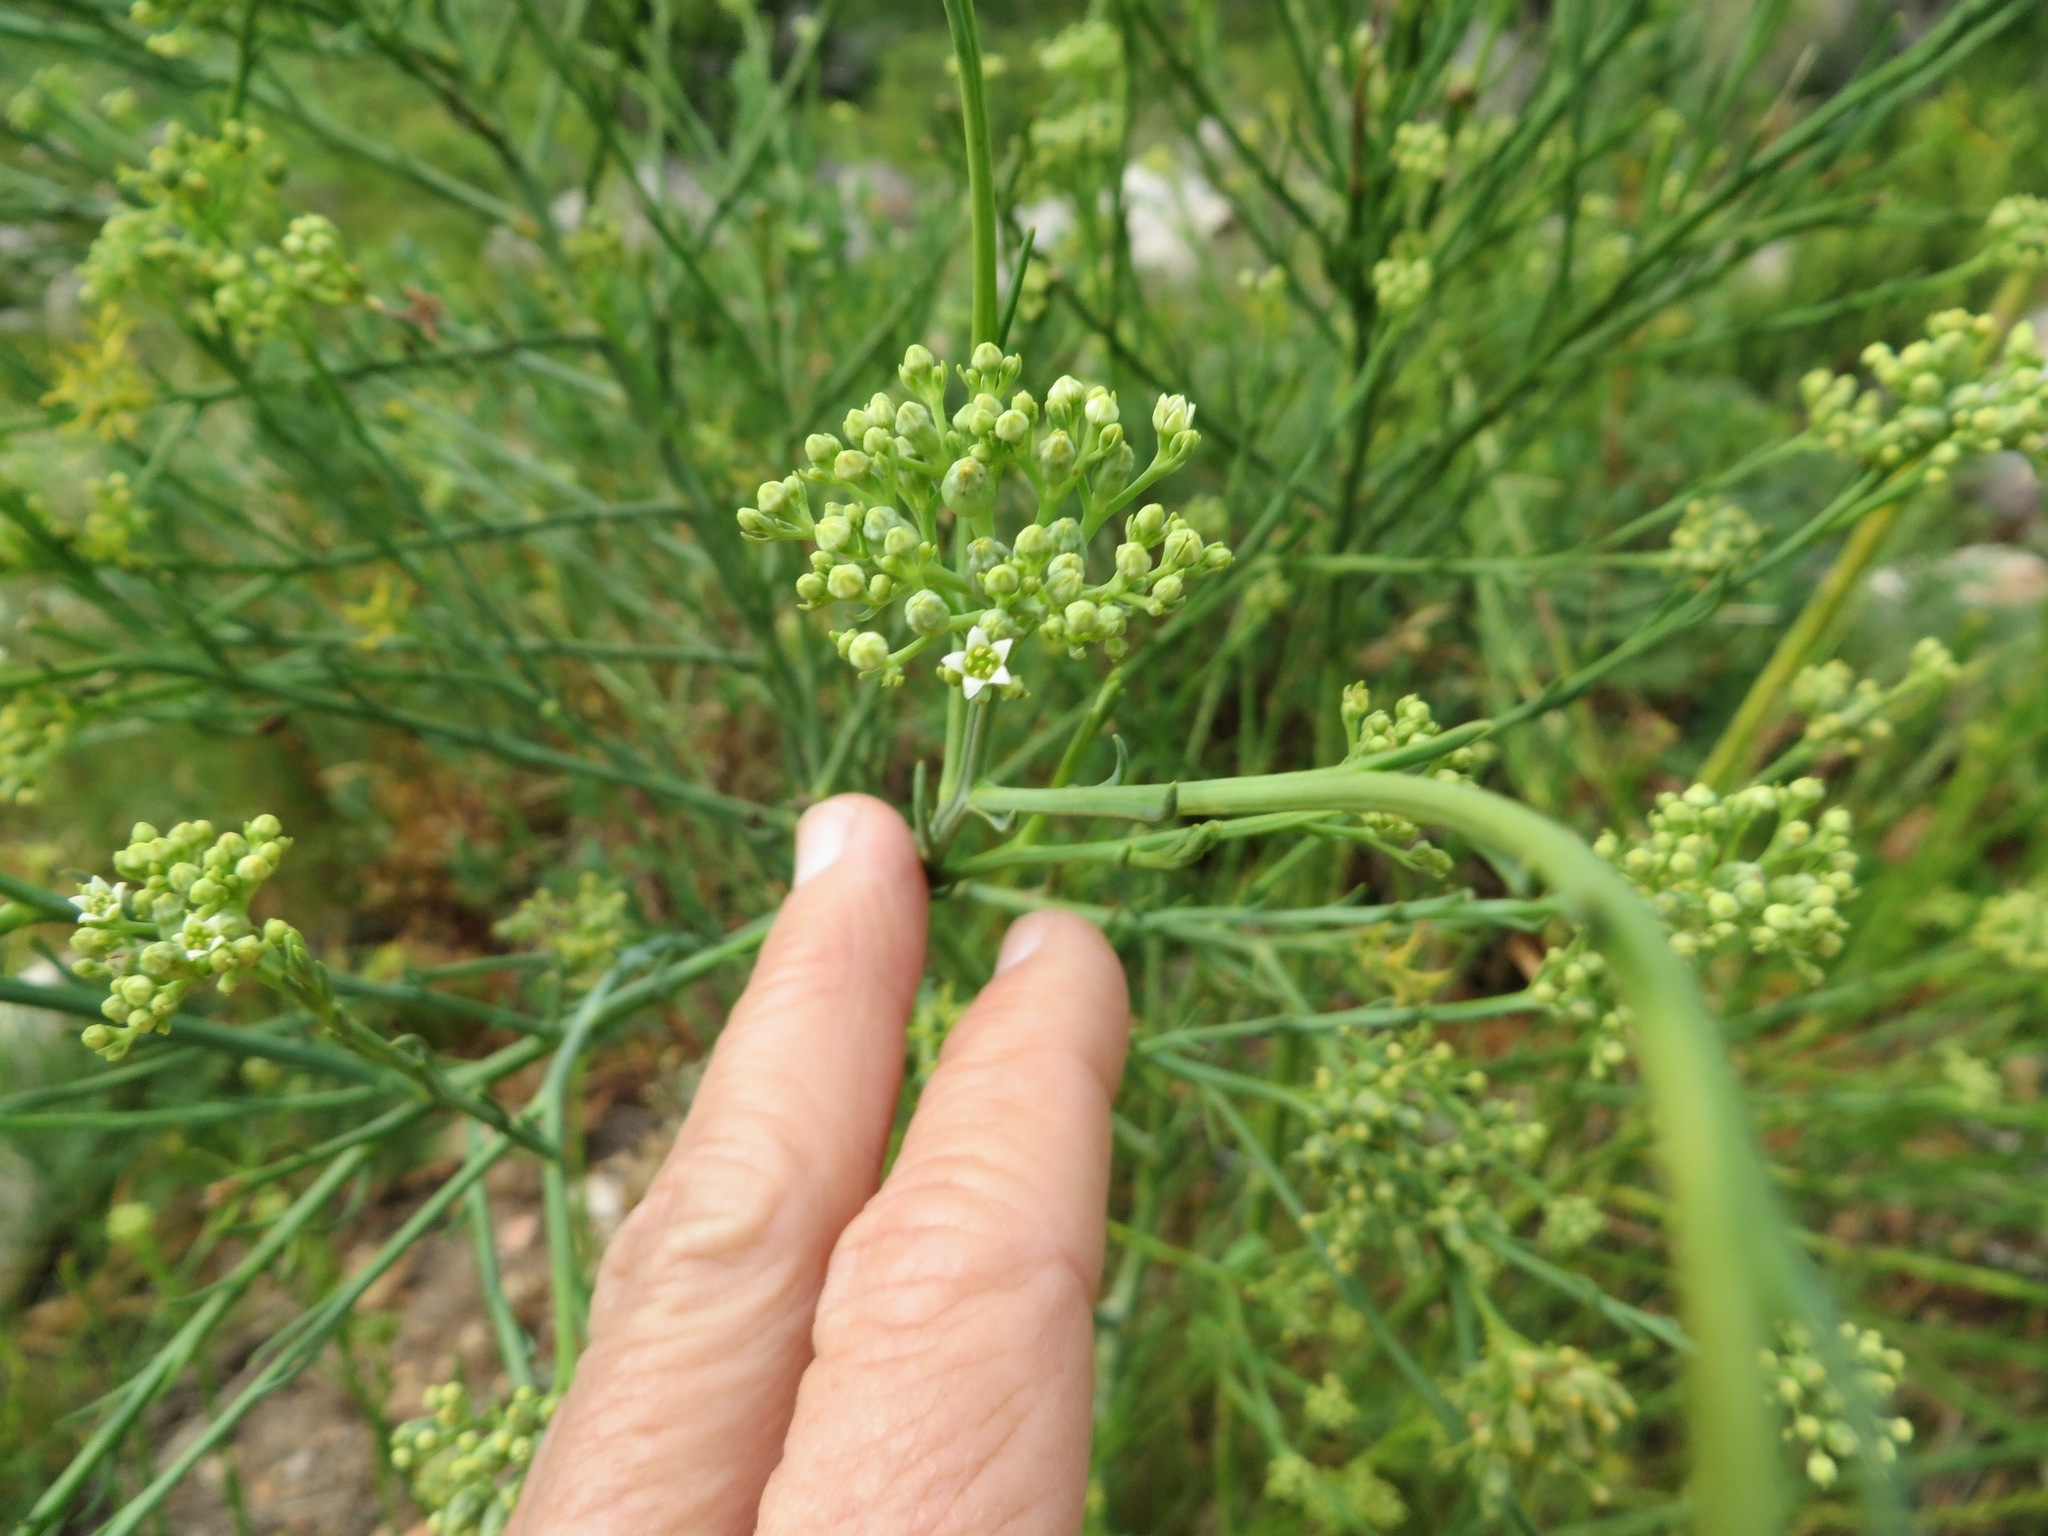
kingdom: Plantae
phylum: Tracheophyta
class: Magnoliopsida
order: Santalales
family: Thesiaceae
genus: Thesium
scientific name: Thesium strictum
